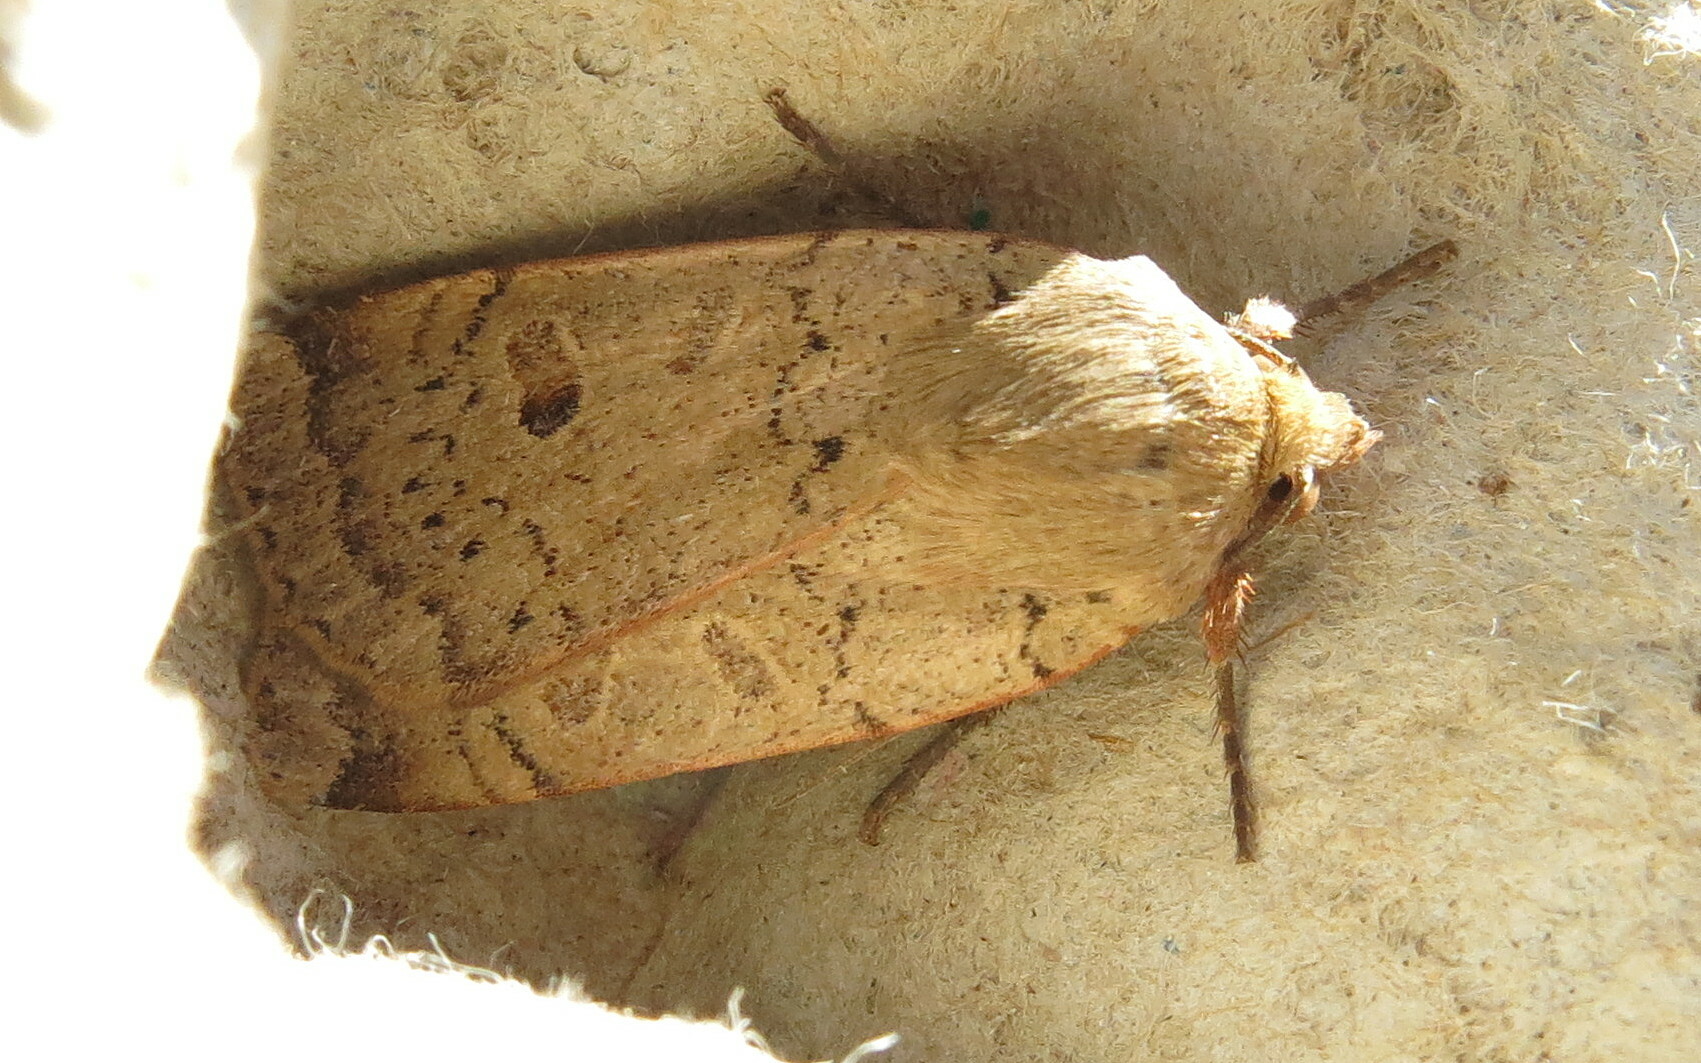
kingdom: Animalia
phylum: Arthropoda
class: Insecta
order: Lepidoptera
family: Noctuidae
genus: Noctua
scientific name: Noctua comes
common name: Lesser yellow underwing
